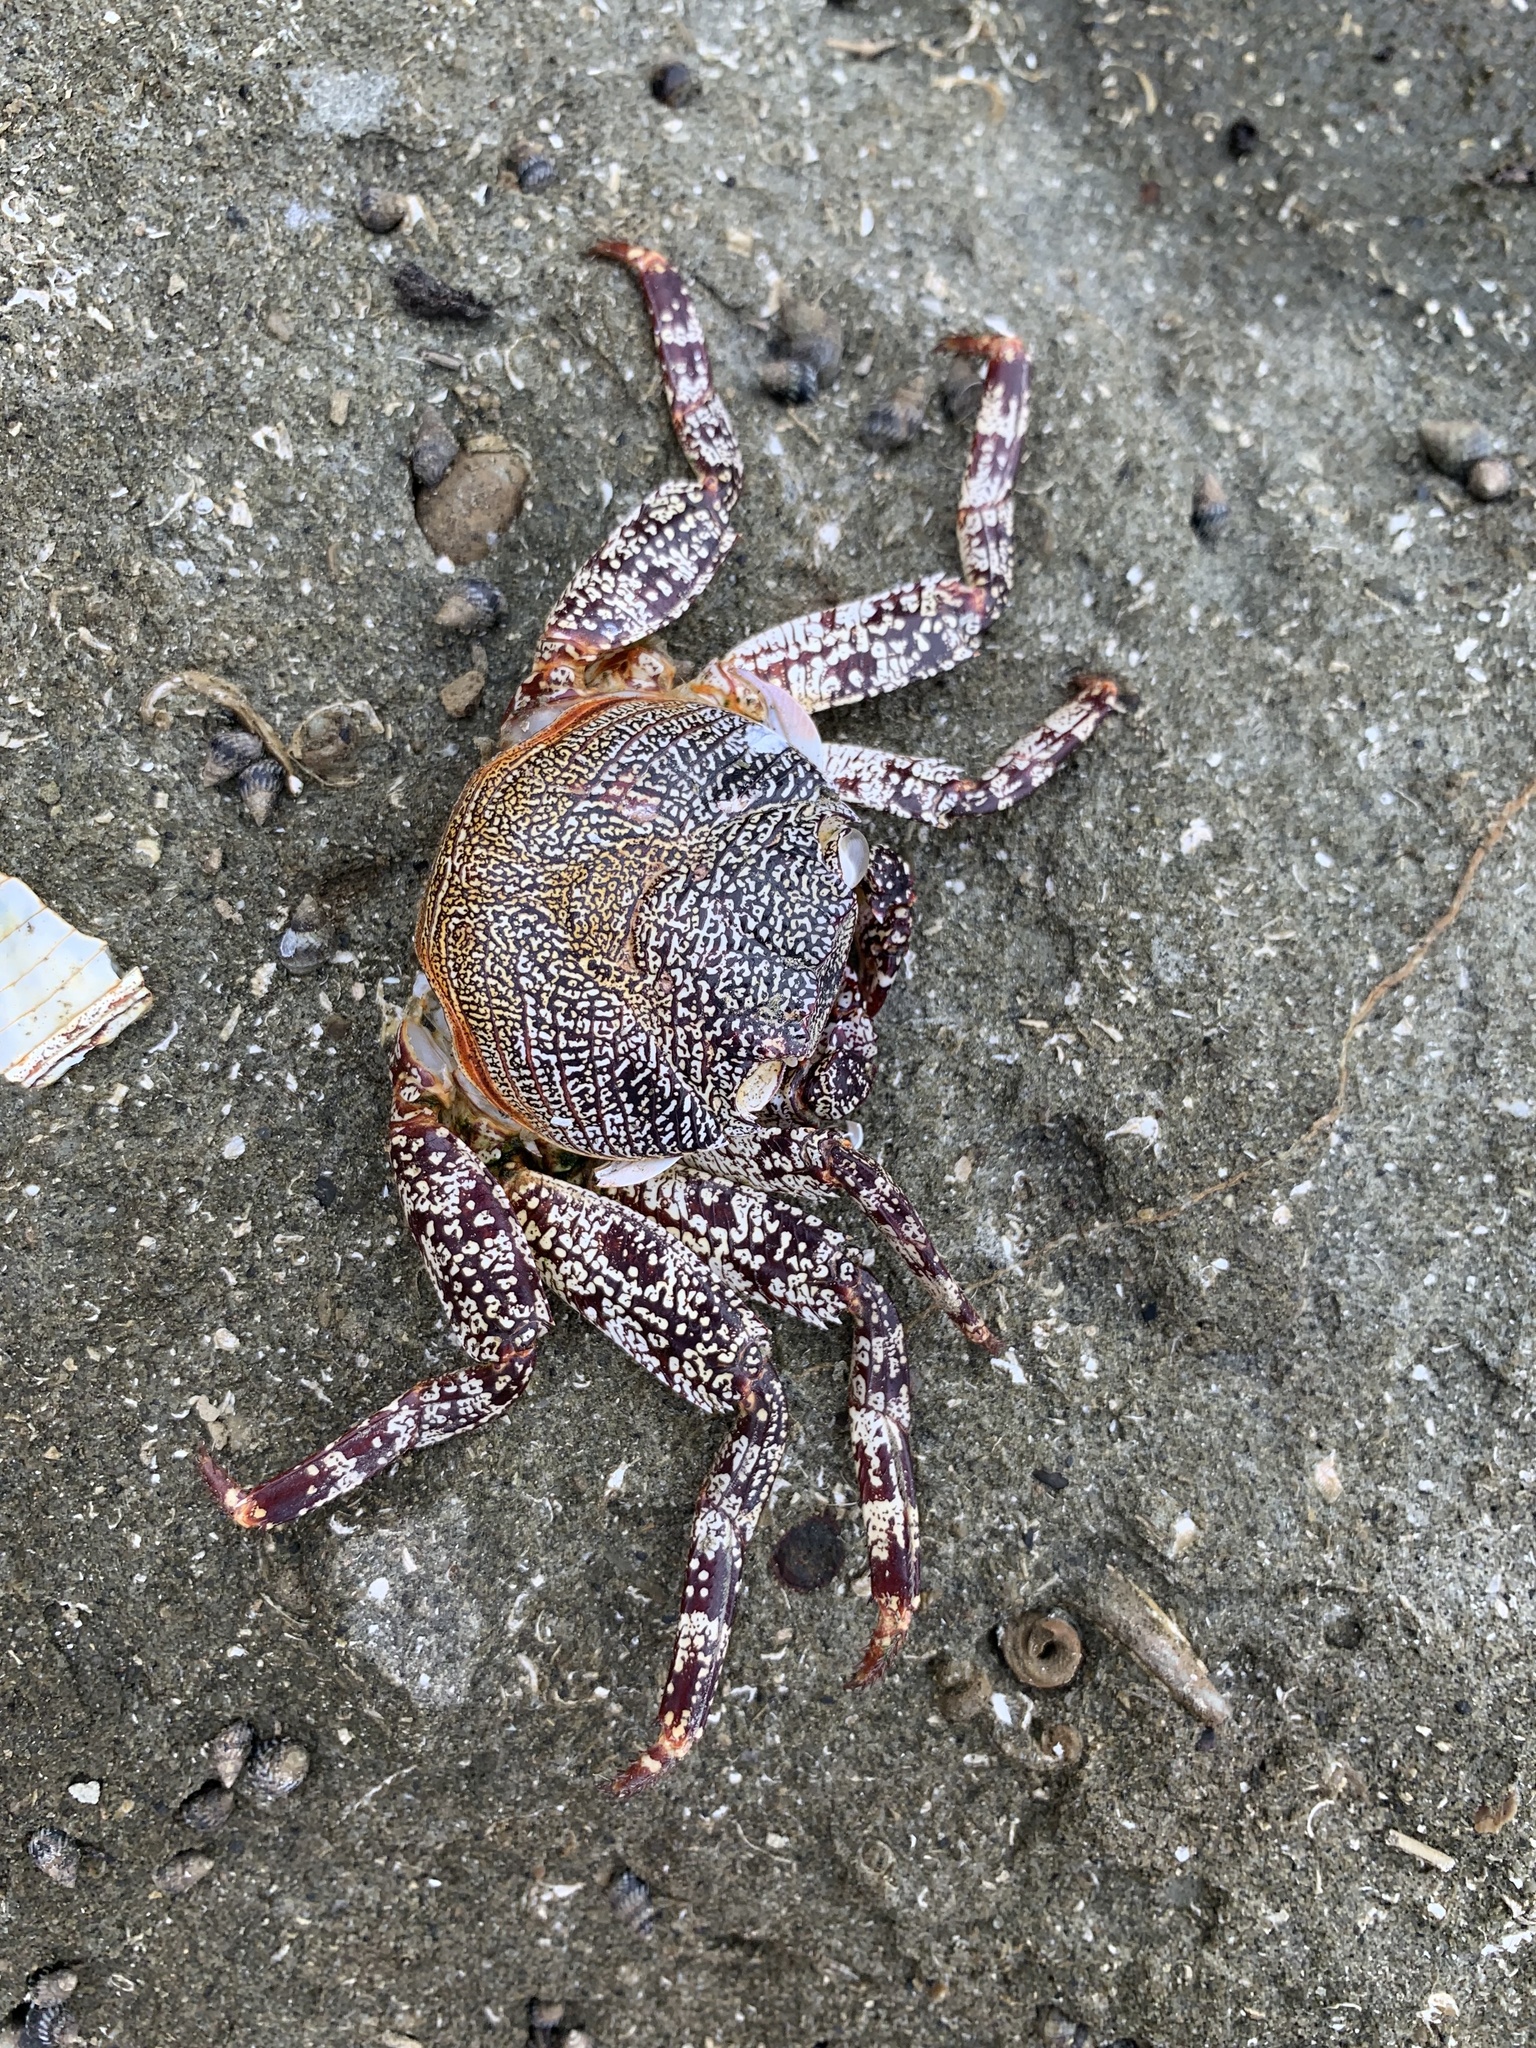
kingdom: Animalia
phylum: Arthropoda
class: Malacostraca
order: Decapoda
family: Grapsidae
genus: Grapsus
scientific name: Grapsus grapsus
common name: Sally lightfoot
